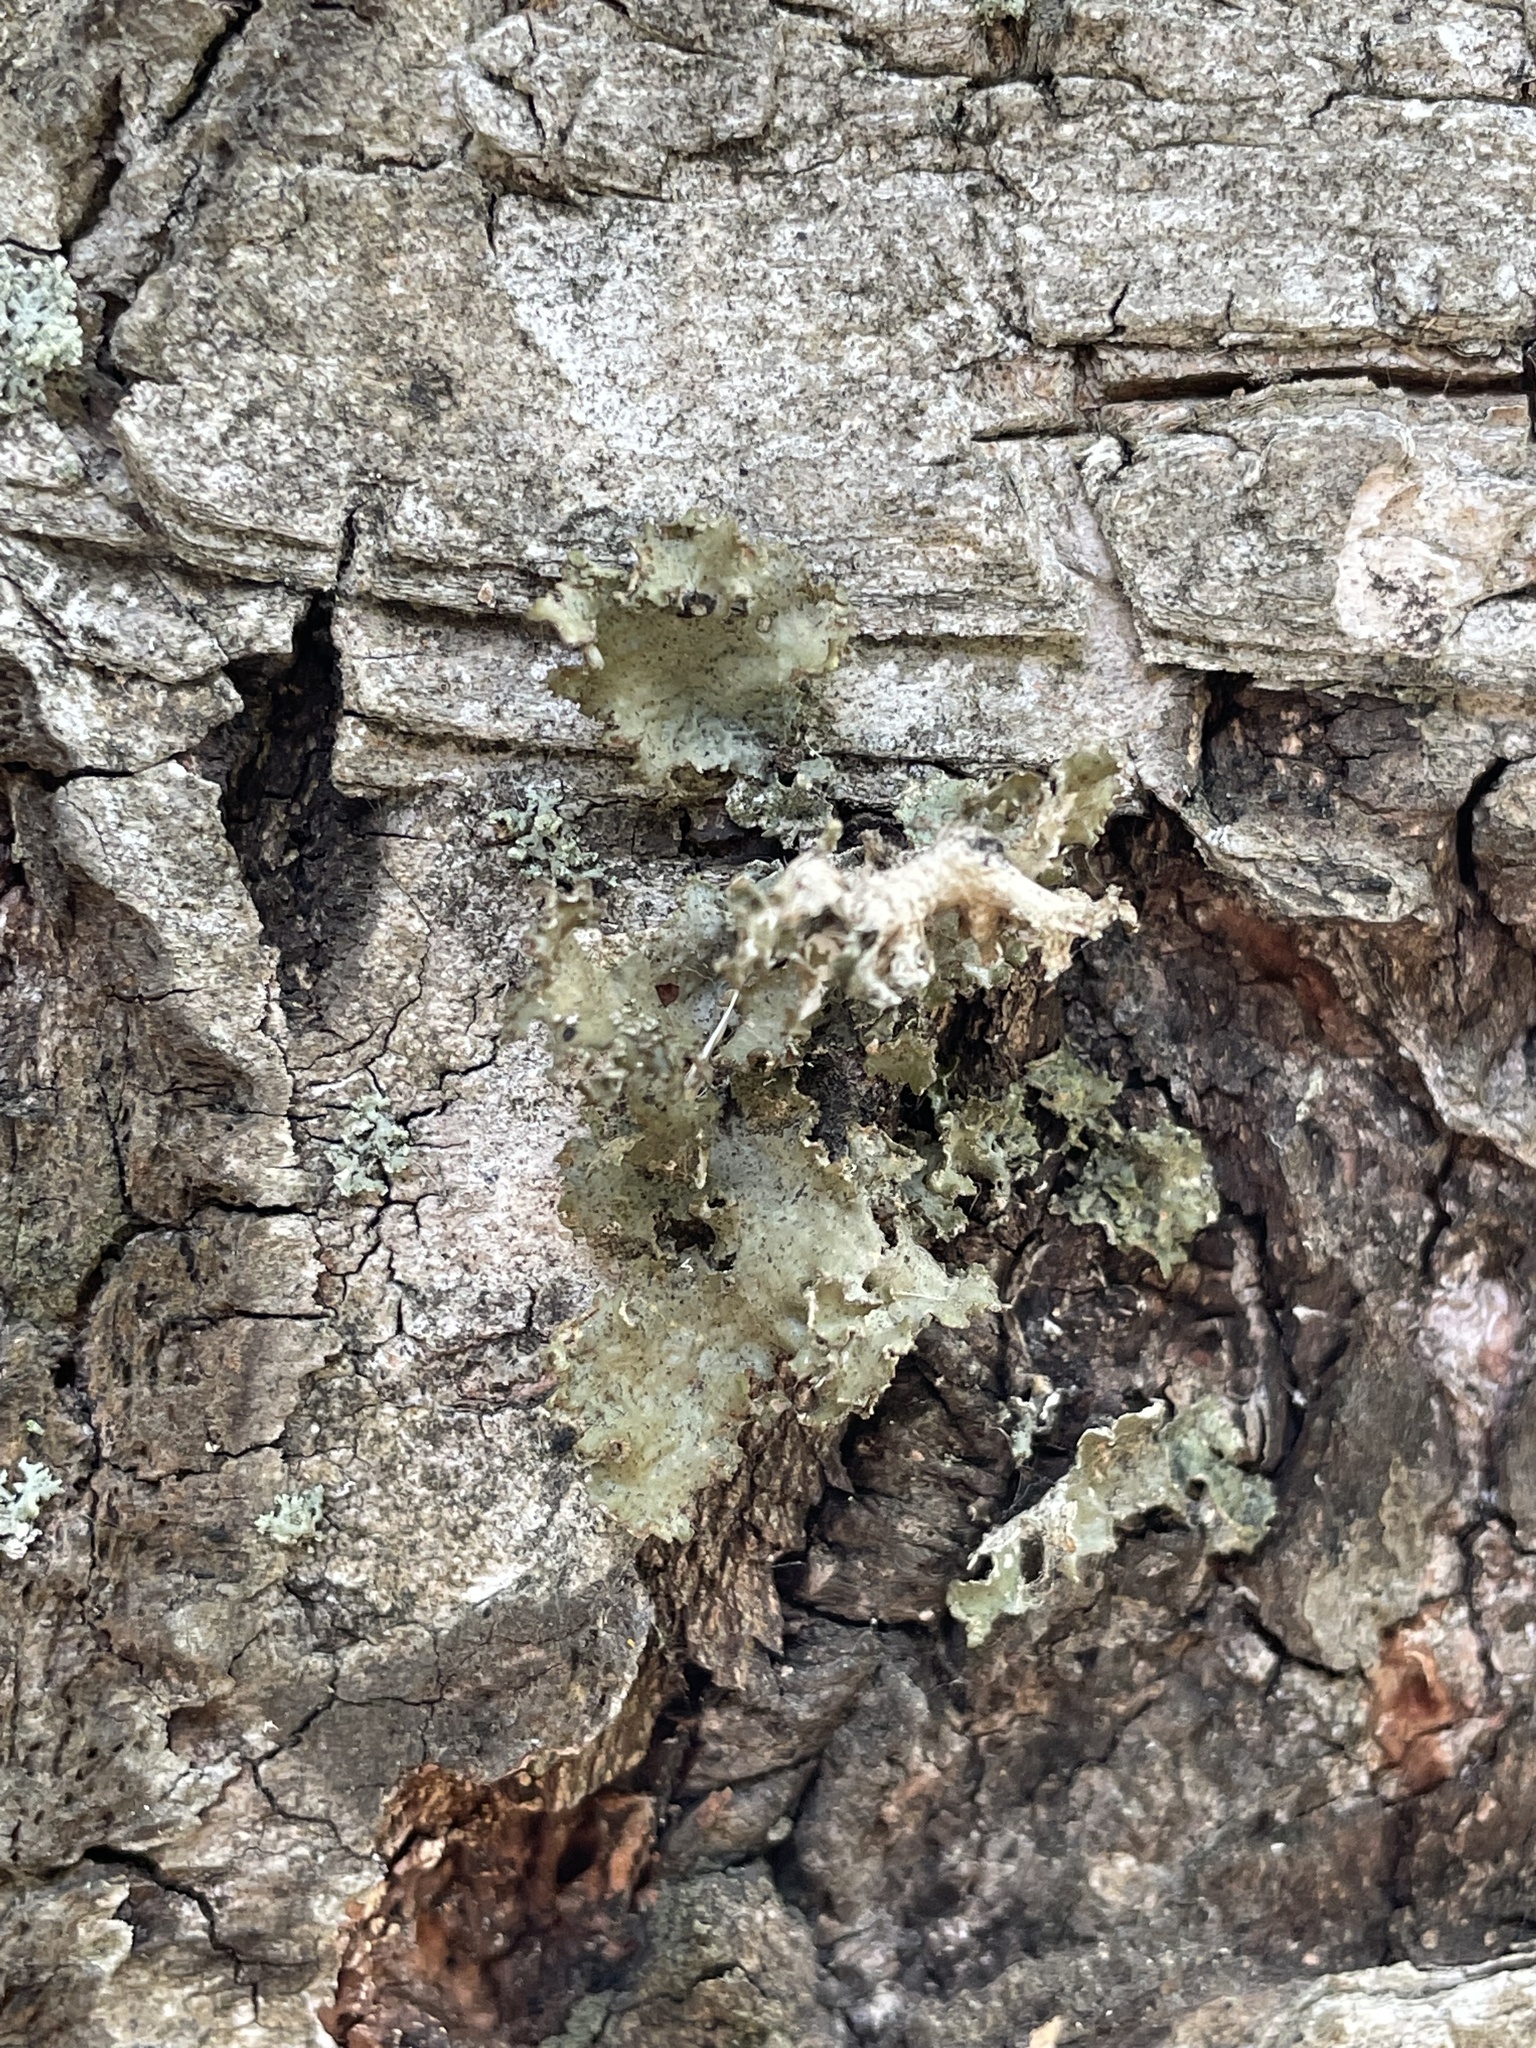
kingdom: Fungi
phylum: Ascomycota
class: Lecanoromycetes
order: Lecanorales
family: Parmeliaceae
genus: Platismatia
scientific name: Platismatia glauca
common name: Varied rag lichen
